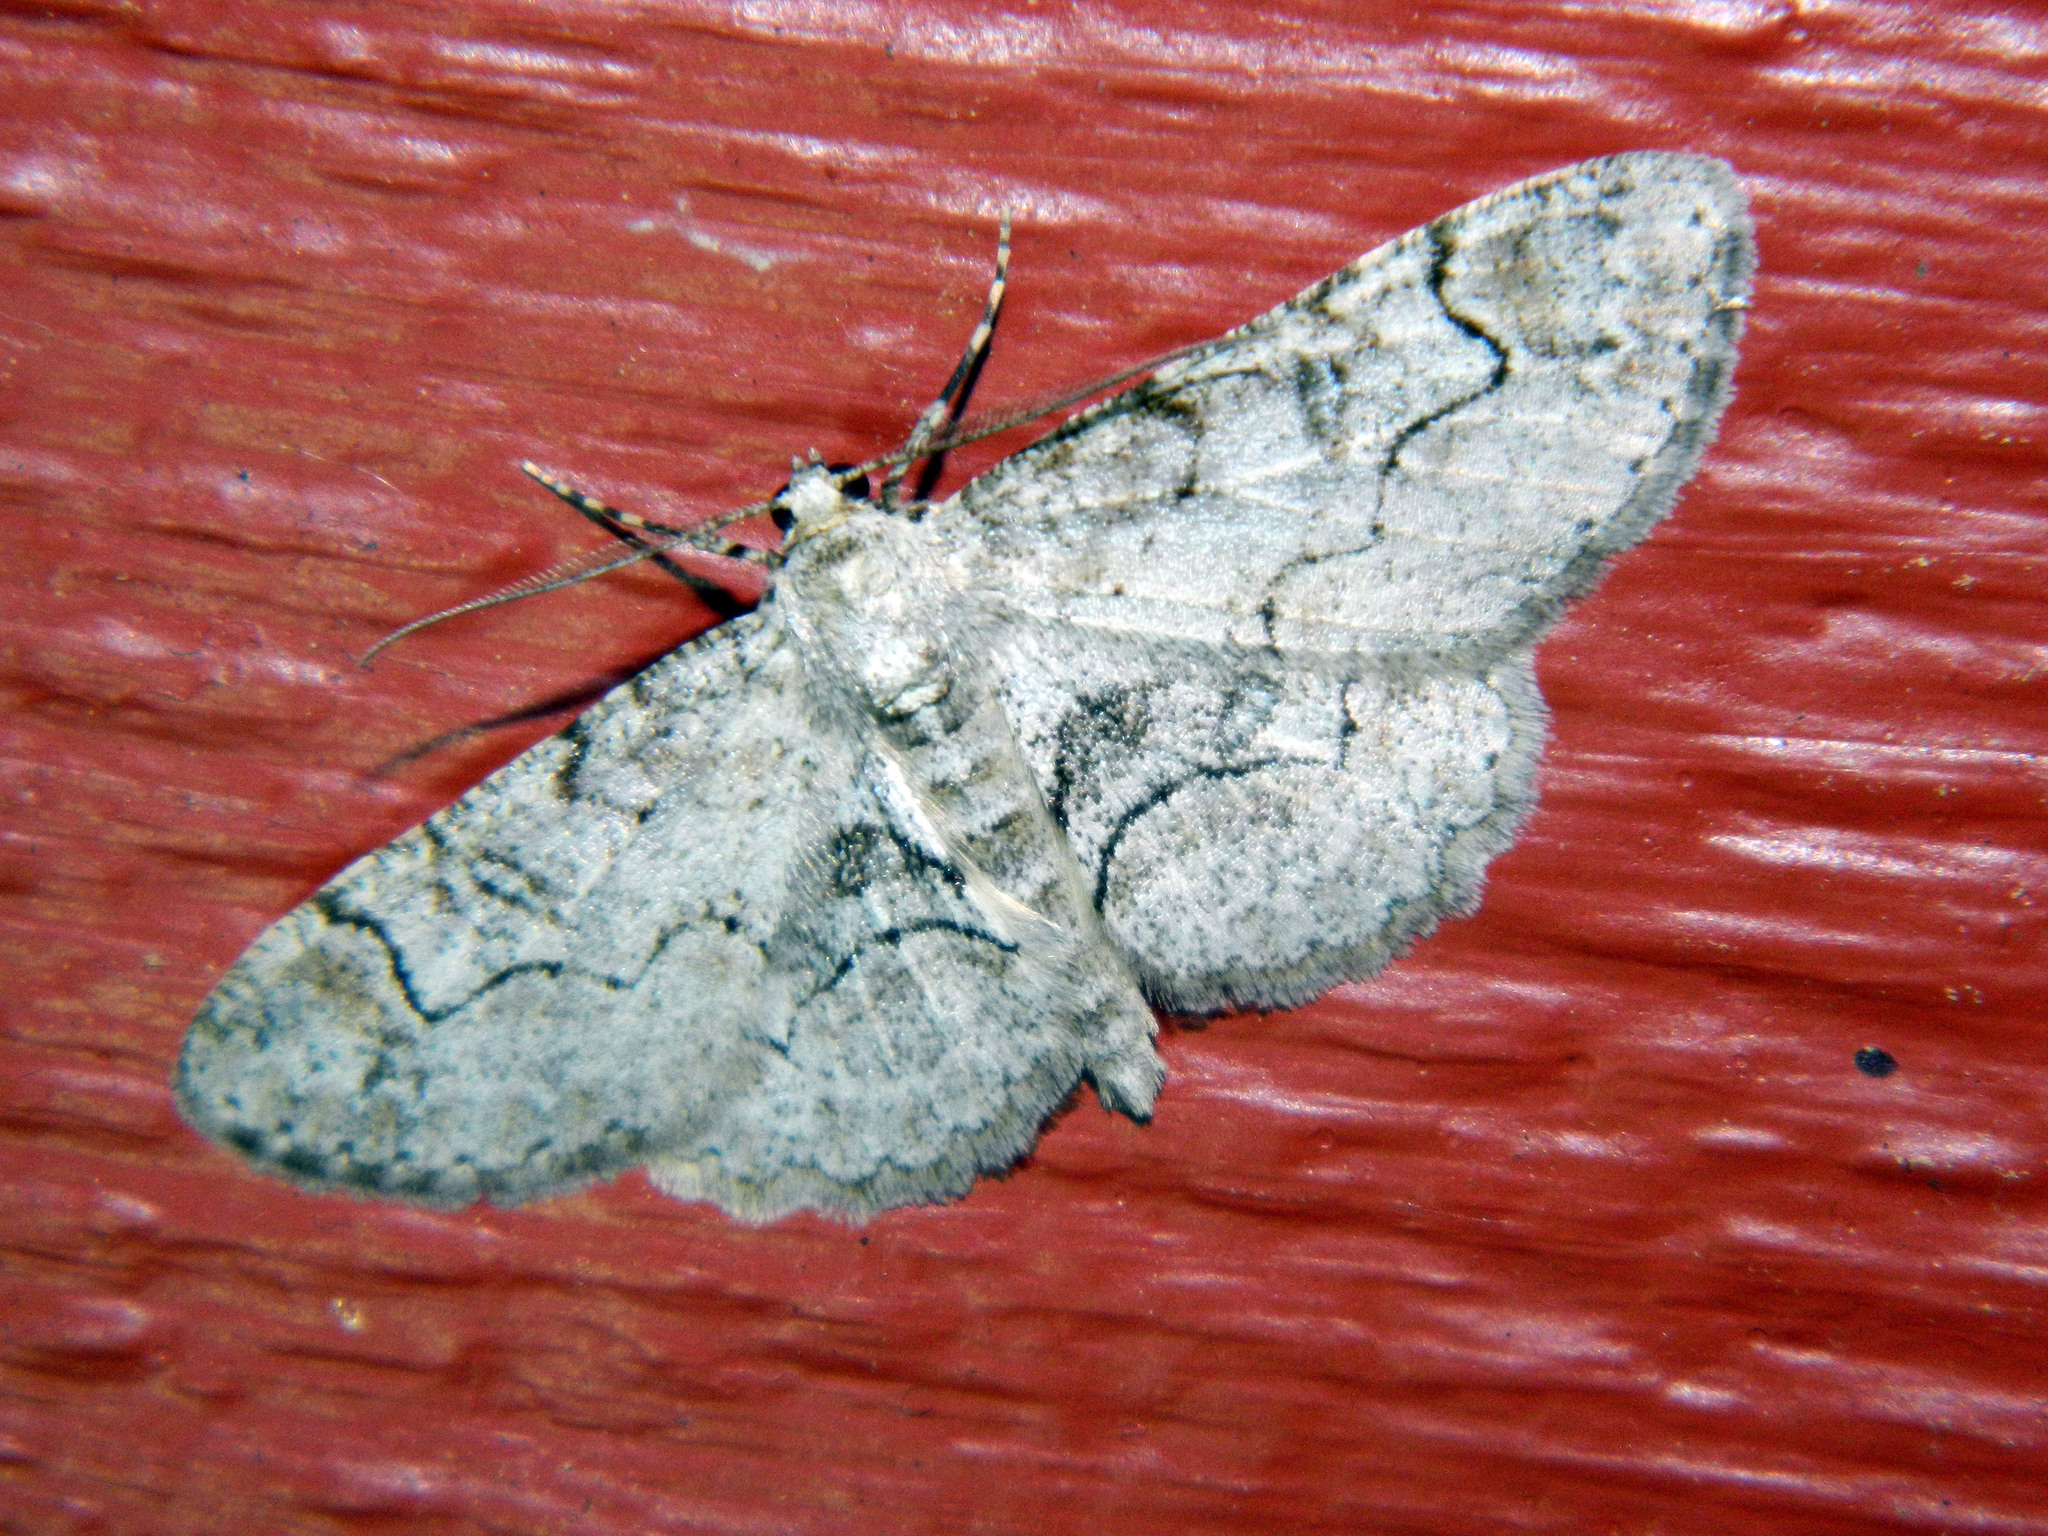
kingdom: Animalia
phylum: Arthropoda
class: Insecta
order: Lepidoptera
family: Geometridae
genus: Iridopsis
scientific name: Iridopsis larvaria
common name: Bent-line gray
